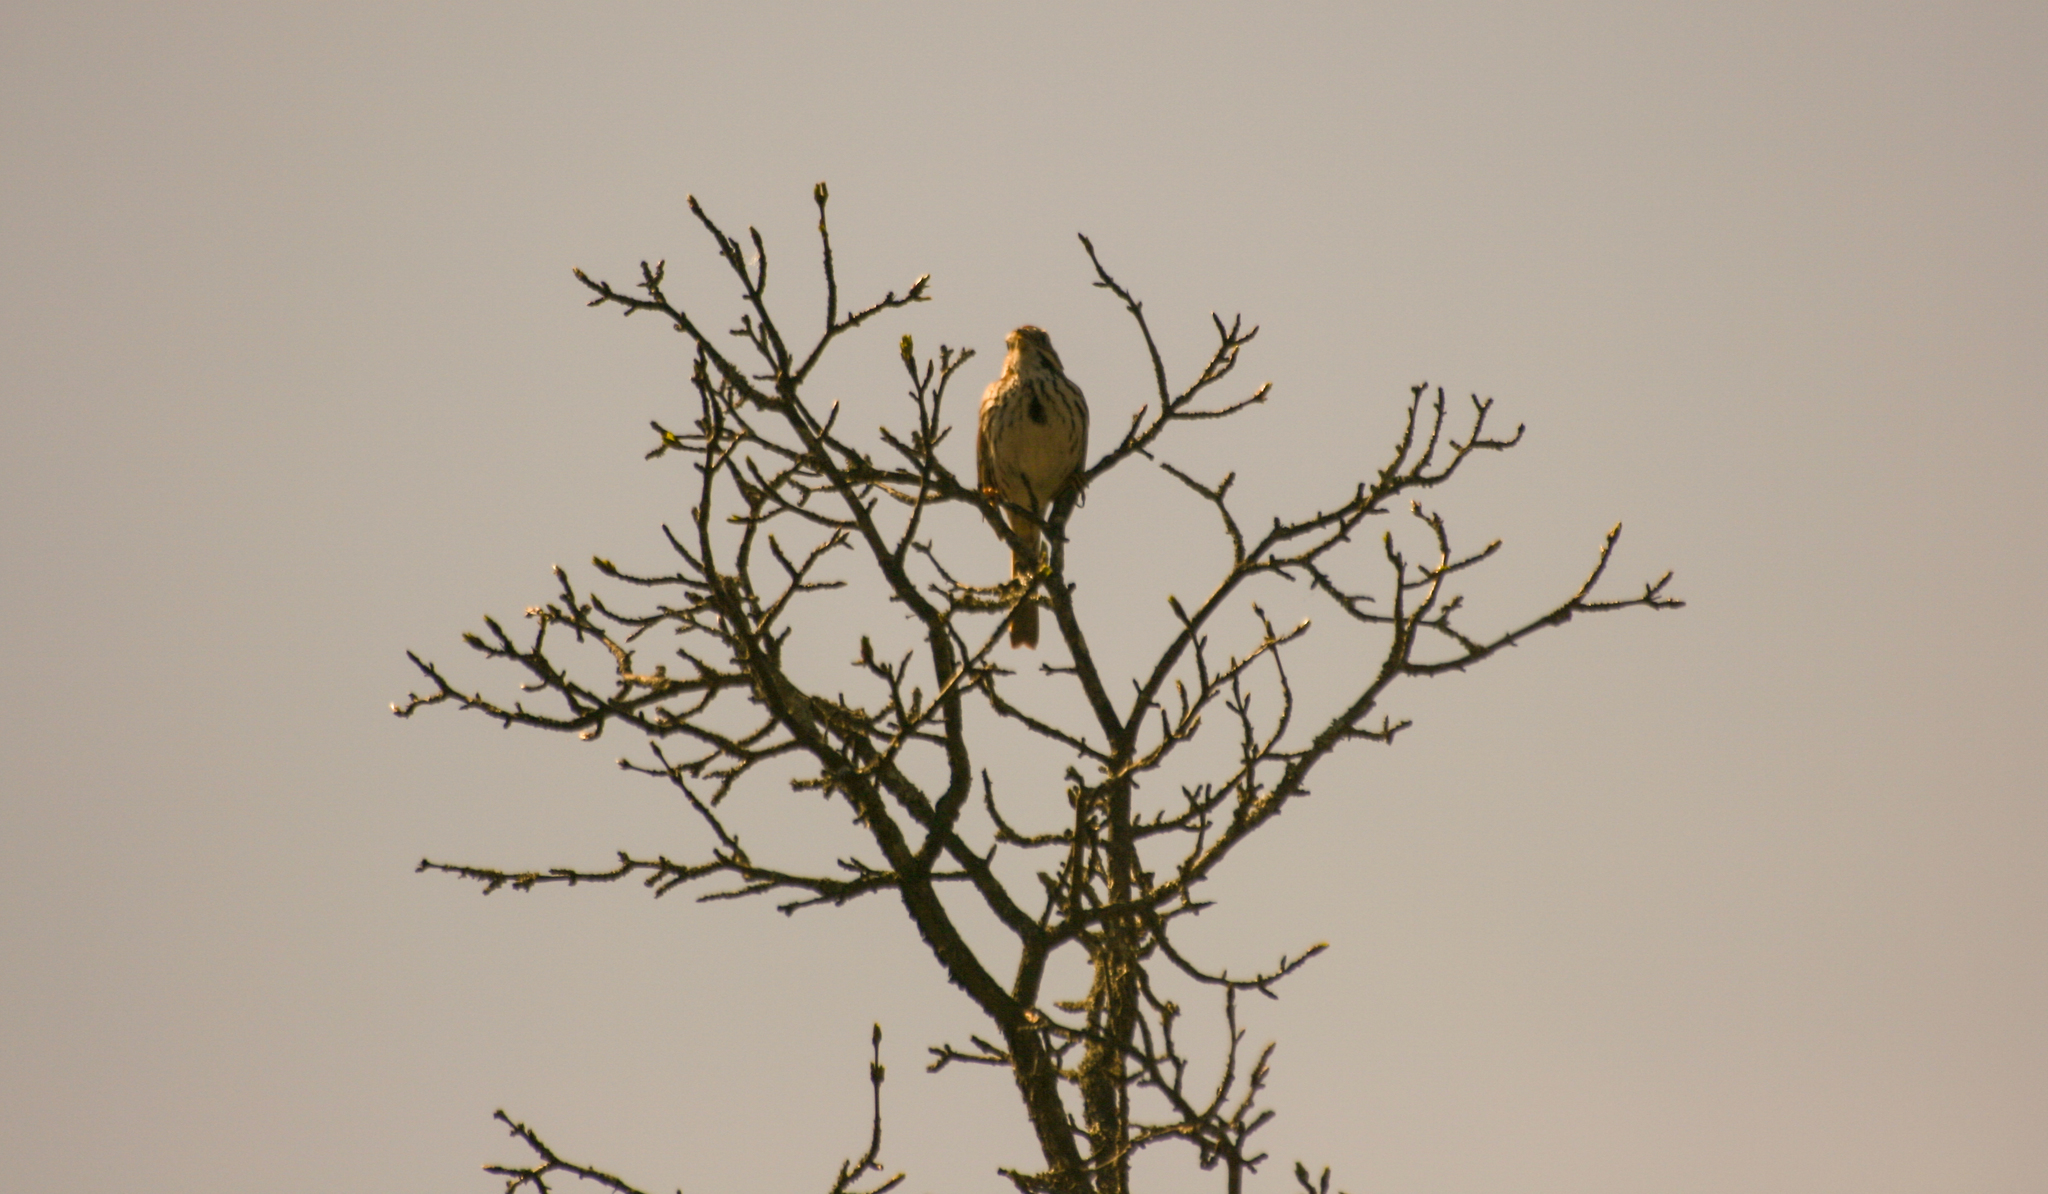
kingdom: Animalia
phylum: Chordata
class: Aves
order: Passeriformes
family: Passerellidae
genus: Melospiza
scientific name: Melospiza melodia
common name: Song sparrow
